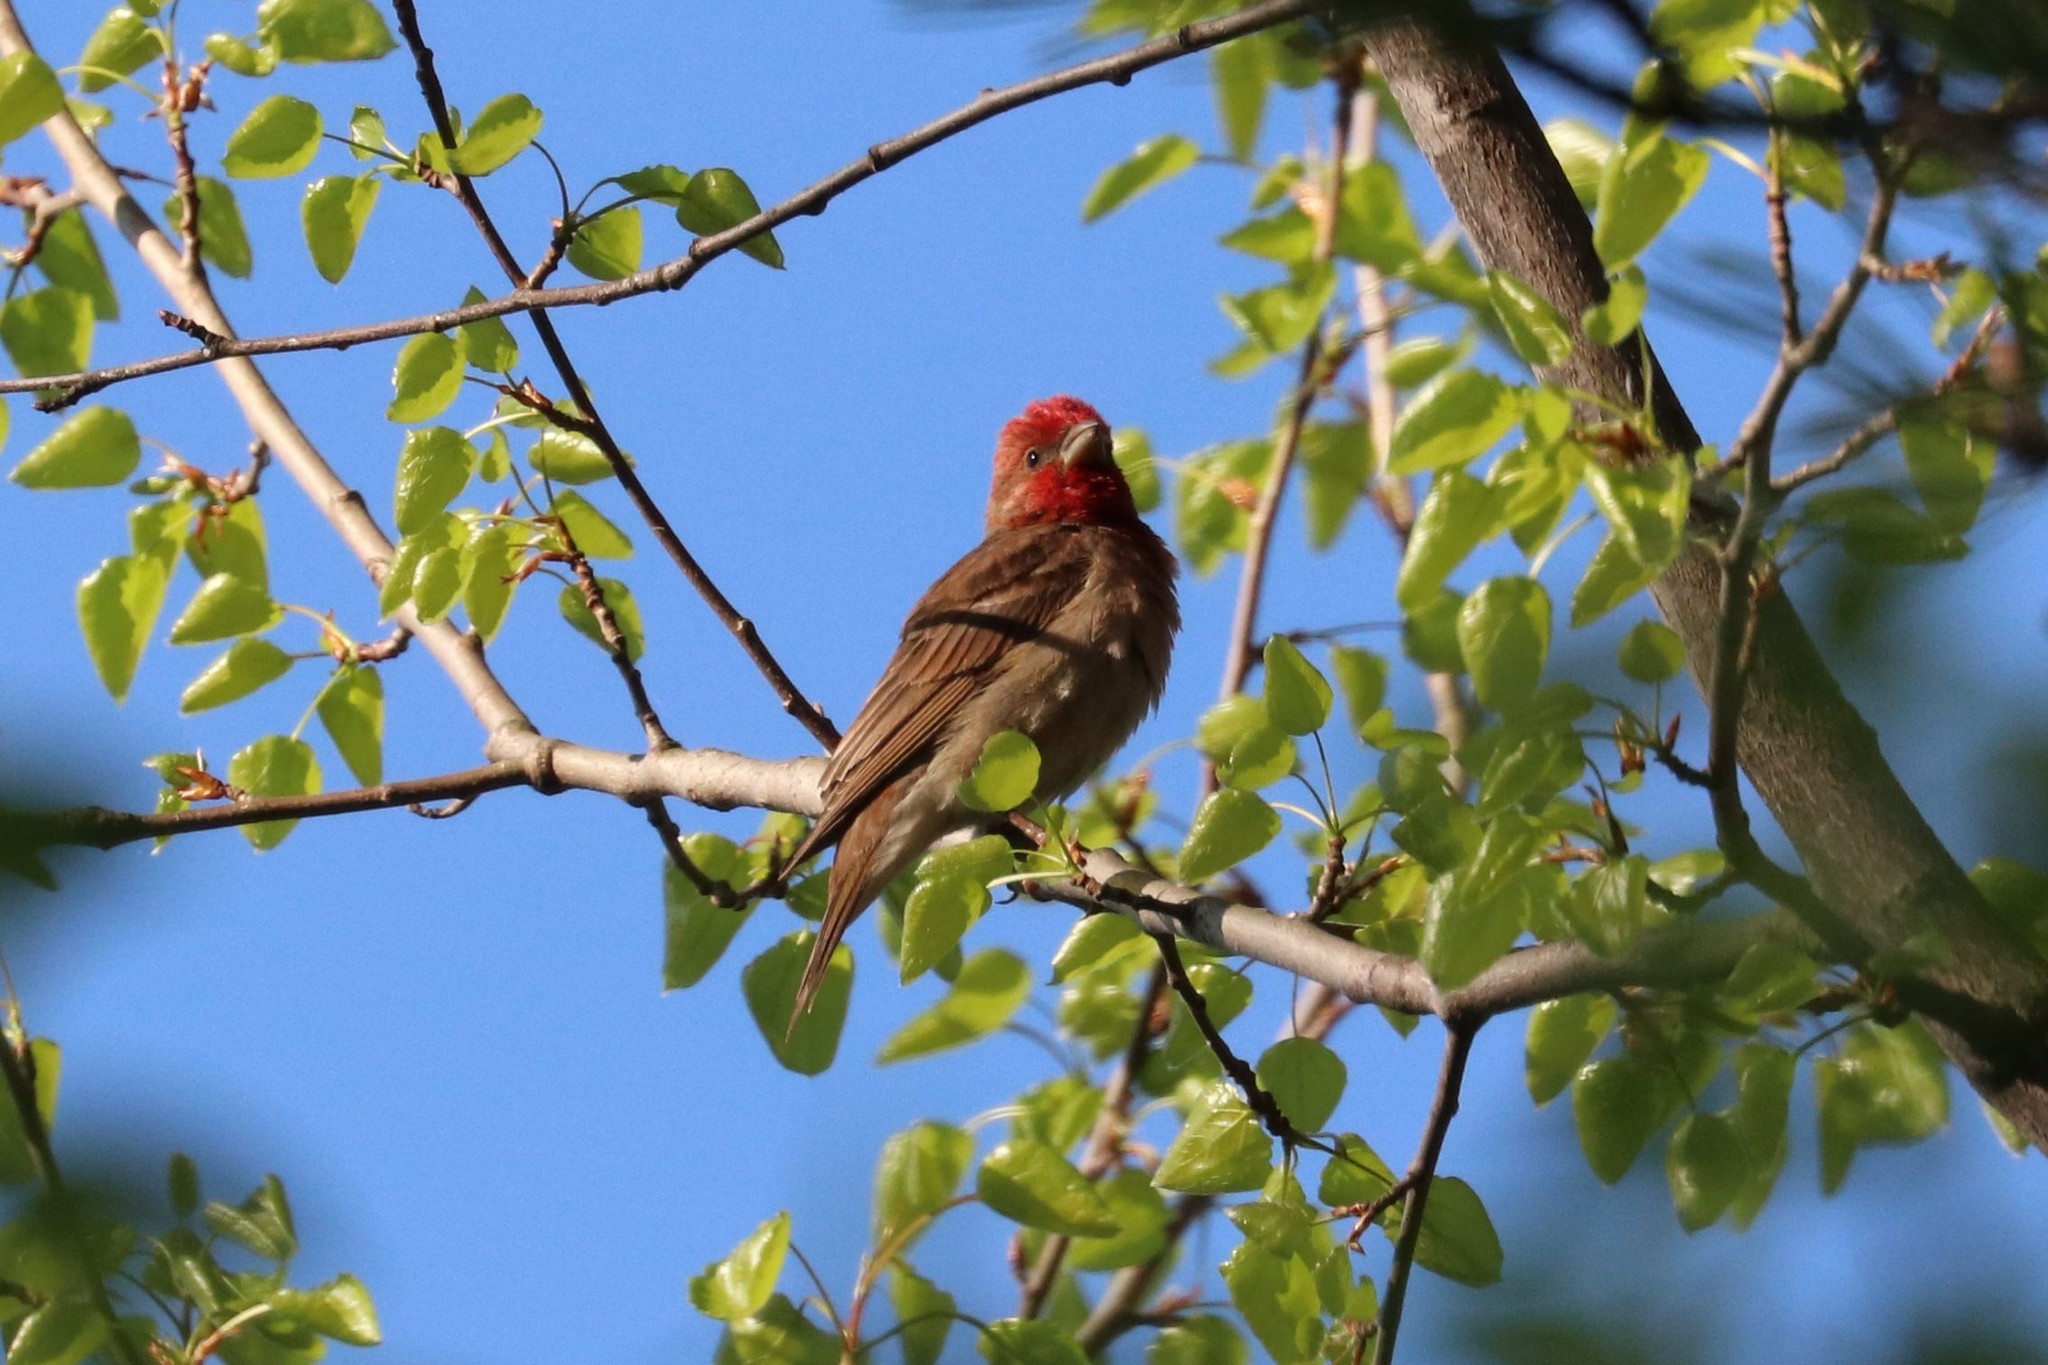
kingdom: Animalia
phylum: Chordata
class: Aves
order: Passeriformes
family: Fringillidae
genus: Carpodacus
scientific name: Carpodacus erythrinus
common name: Common rosefinch
